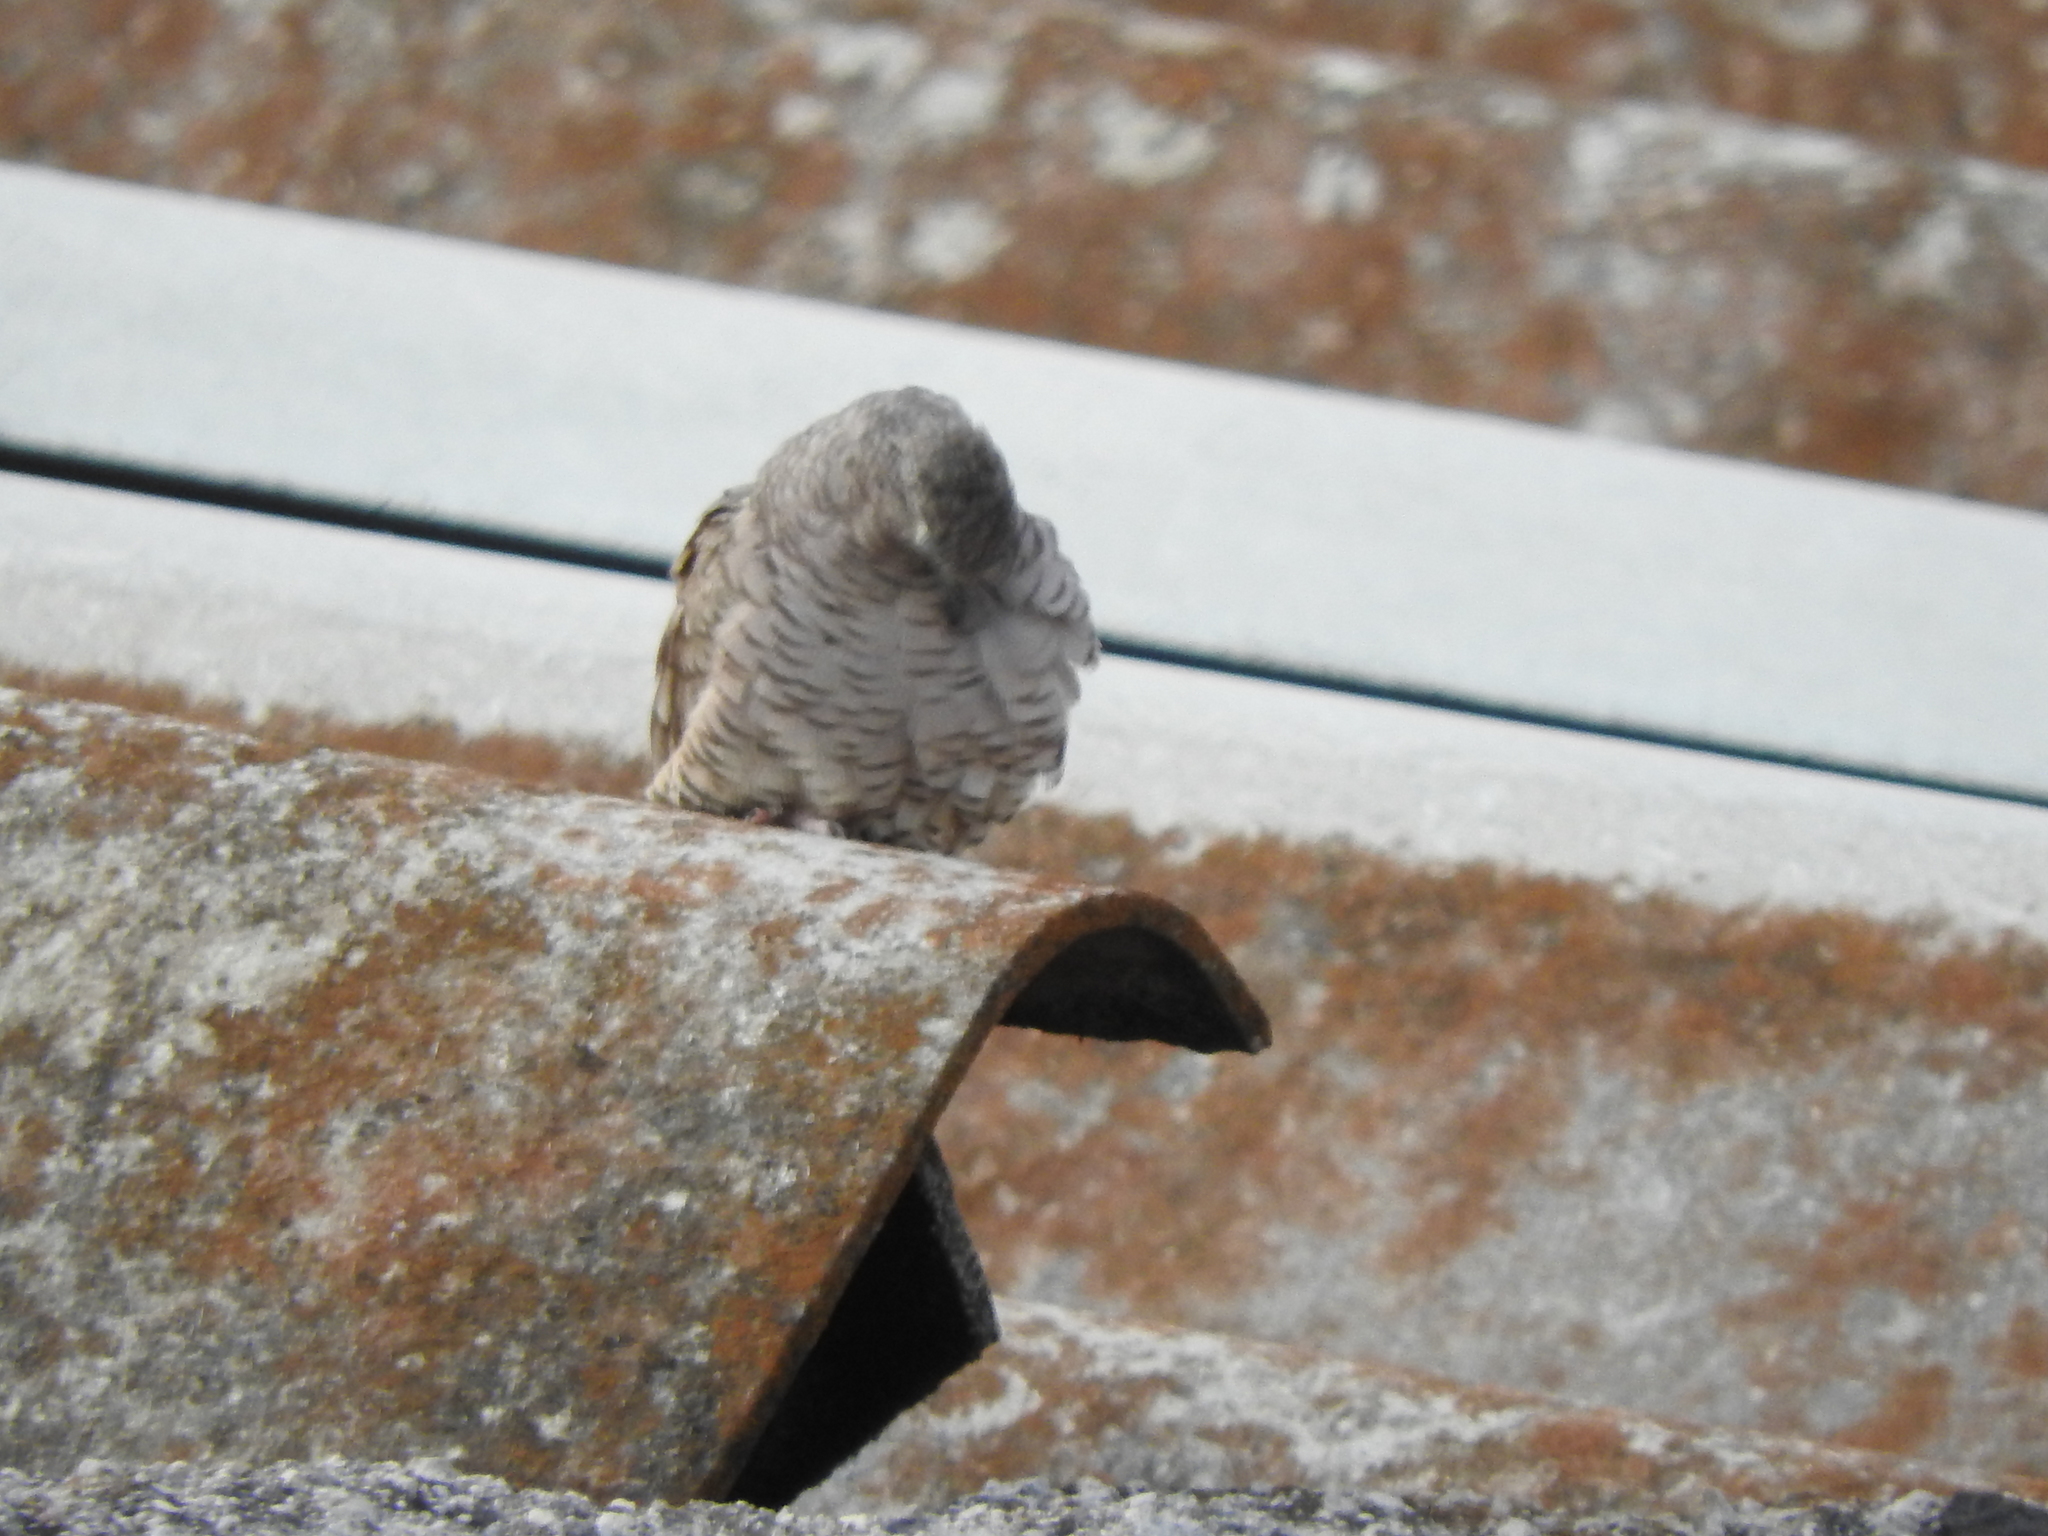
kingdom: Animalia
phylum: Chordata
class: Aves
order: Columbiformes
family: Columbidae
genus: Columbina
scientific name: Columbina inca
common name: Inca dove
